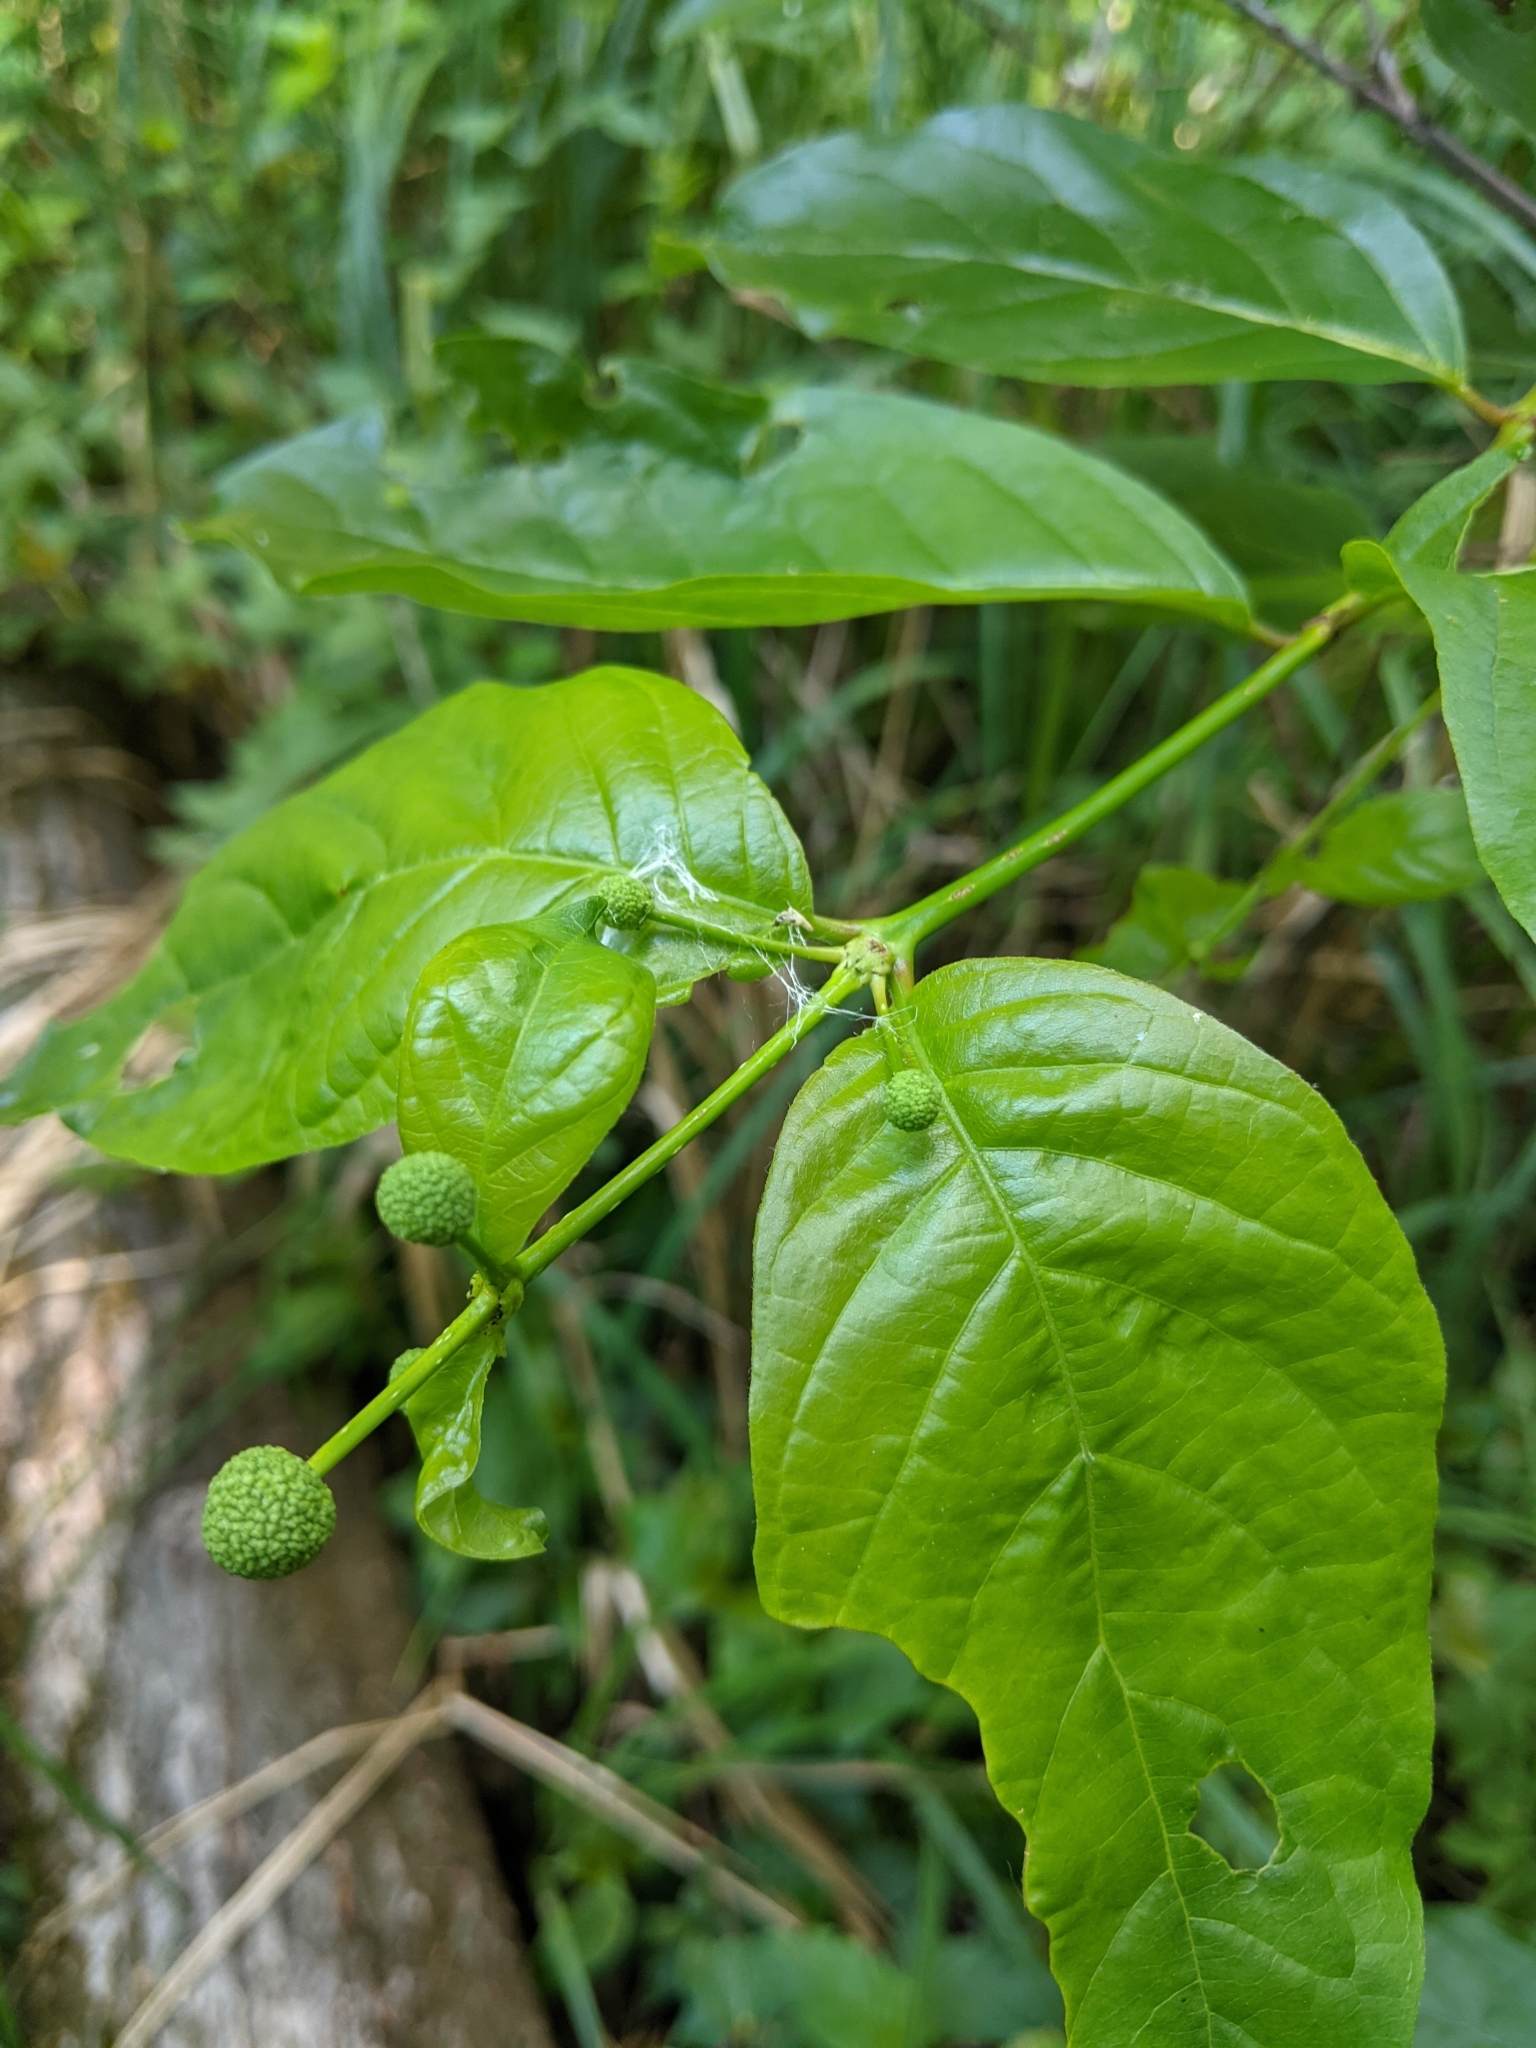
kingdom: Plantae
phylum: Tracheophyta
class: Magnoliopsida
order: Gentianales
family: Rubiaceae
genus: Cephalanthus
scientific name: Cephalanthus occidentalis
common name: Button-willow
